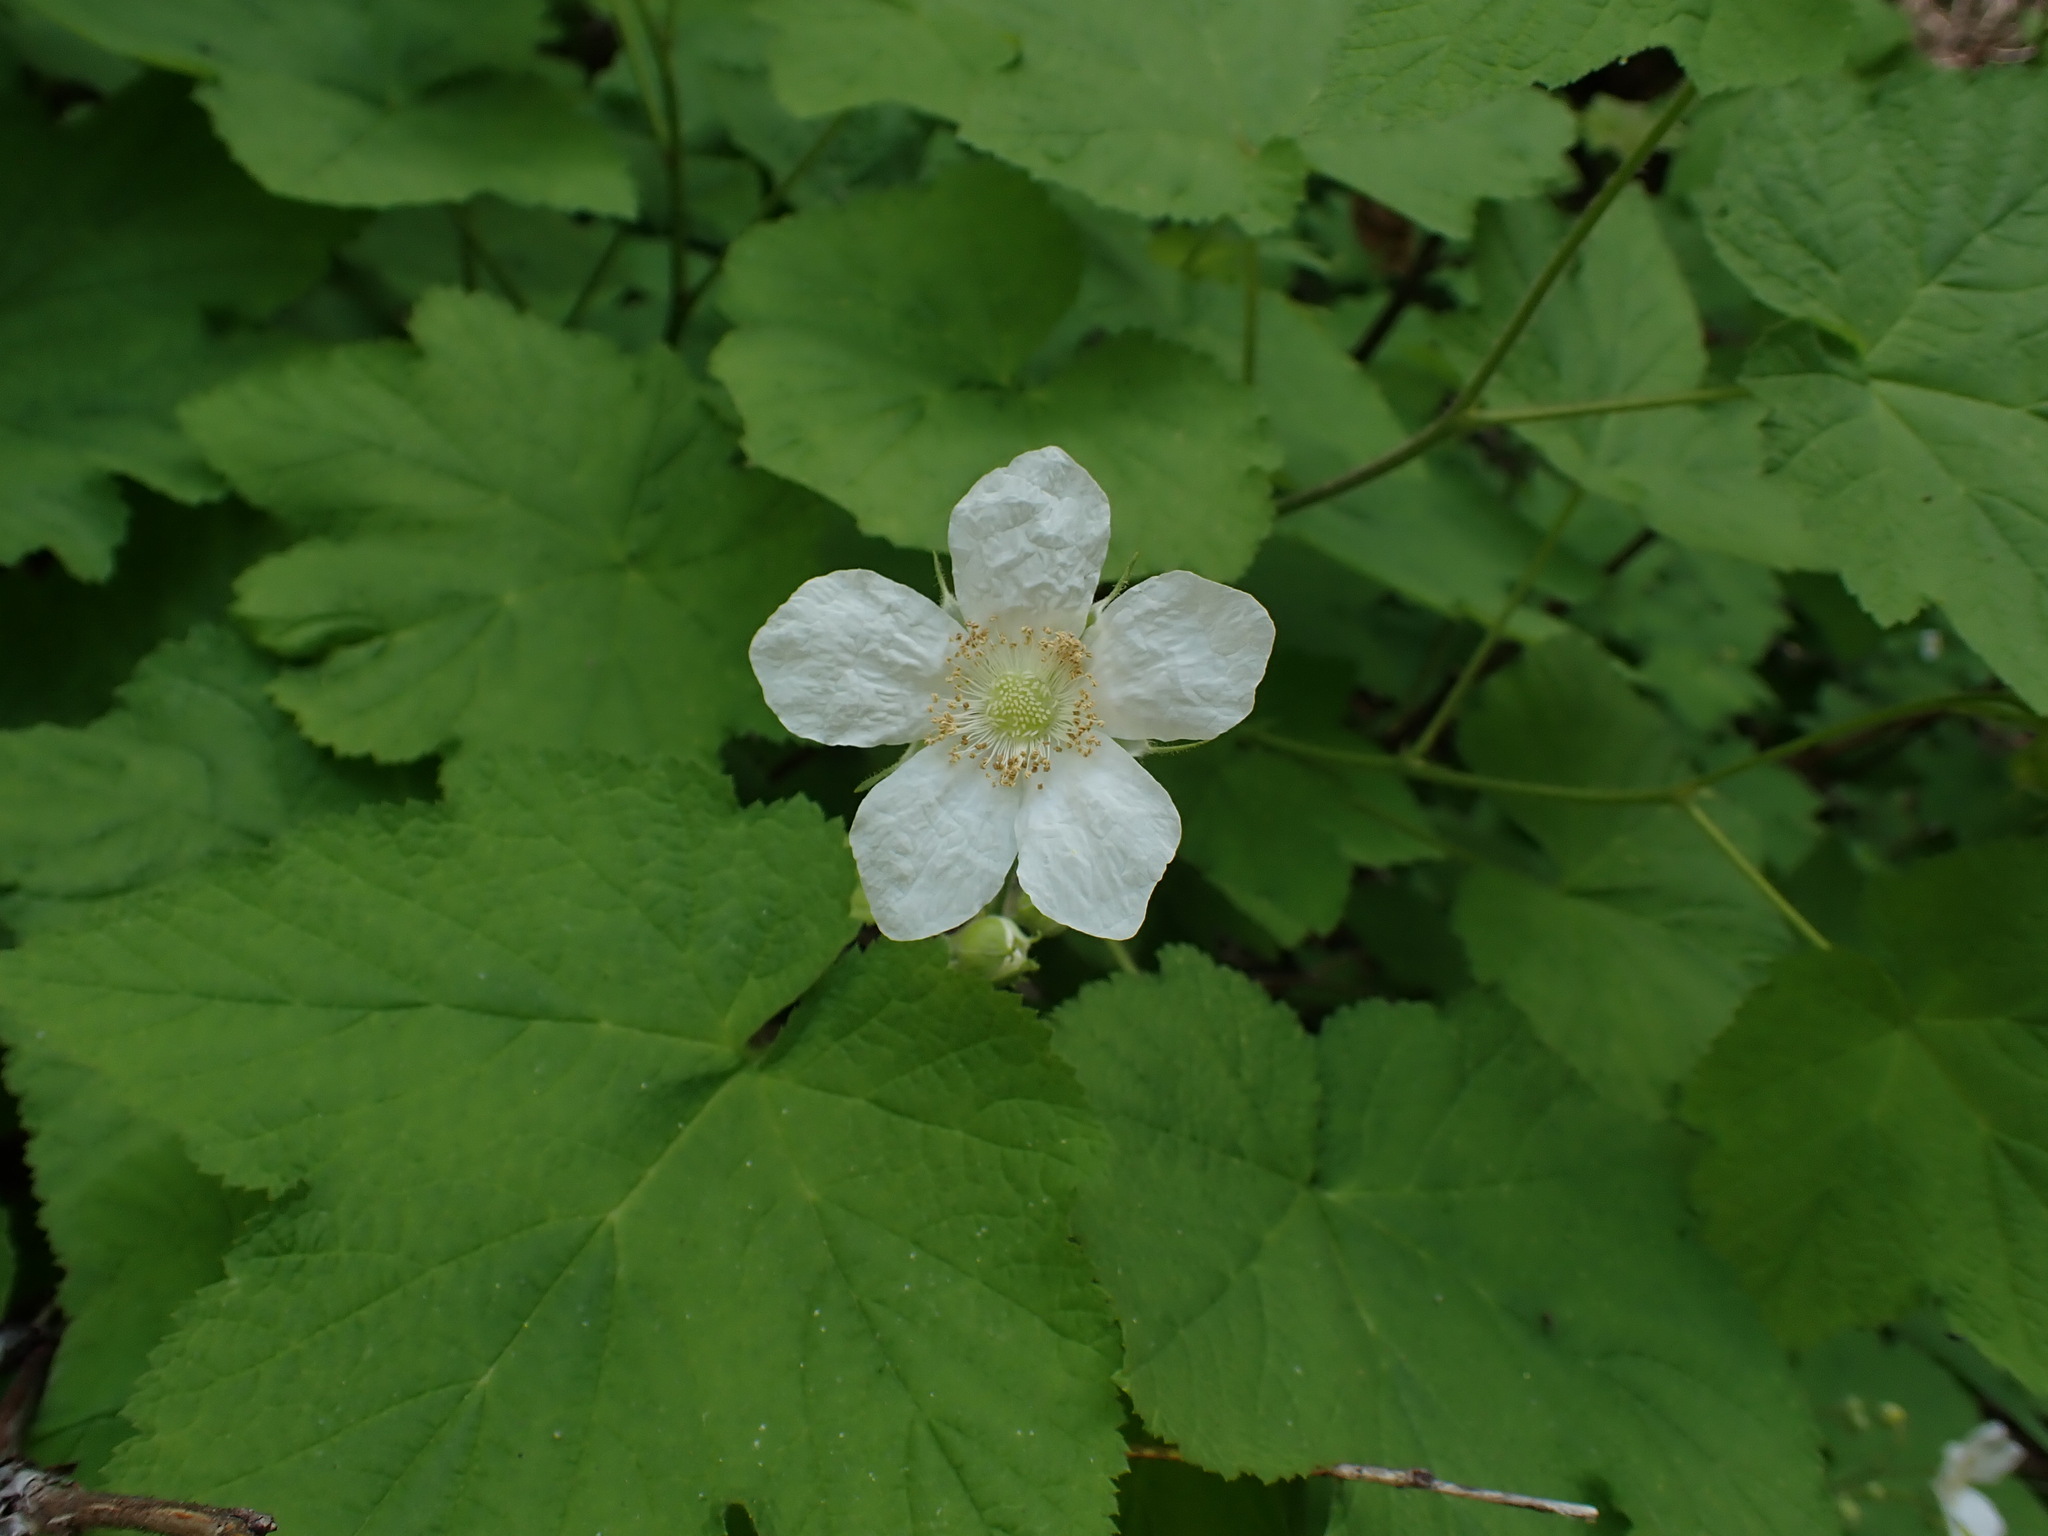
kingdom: Plantae
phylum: Tracheophyta
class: Magnoliopsida
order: Rosales
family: Rosaceae
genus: Rubus
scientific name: Rubus parviflorus
